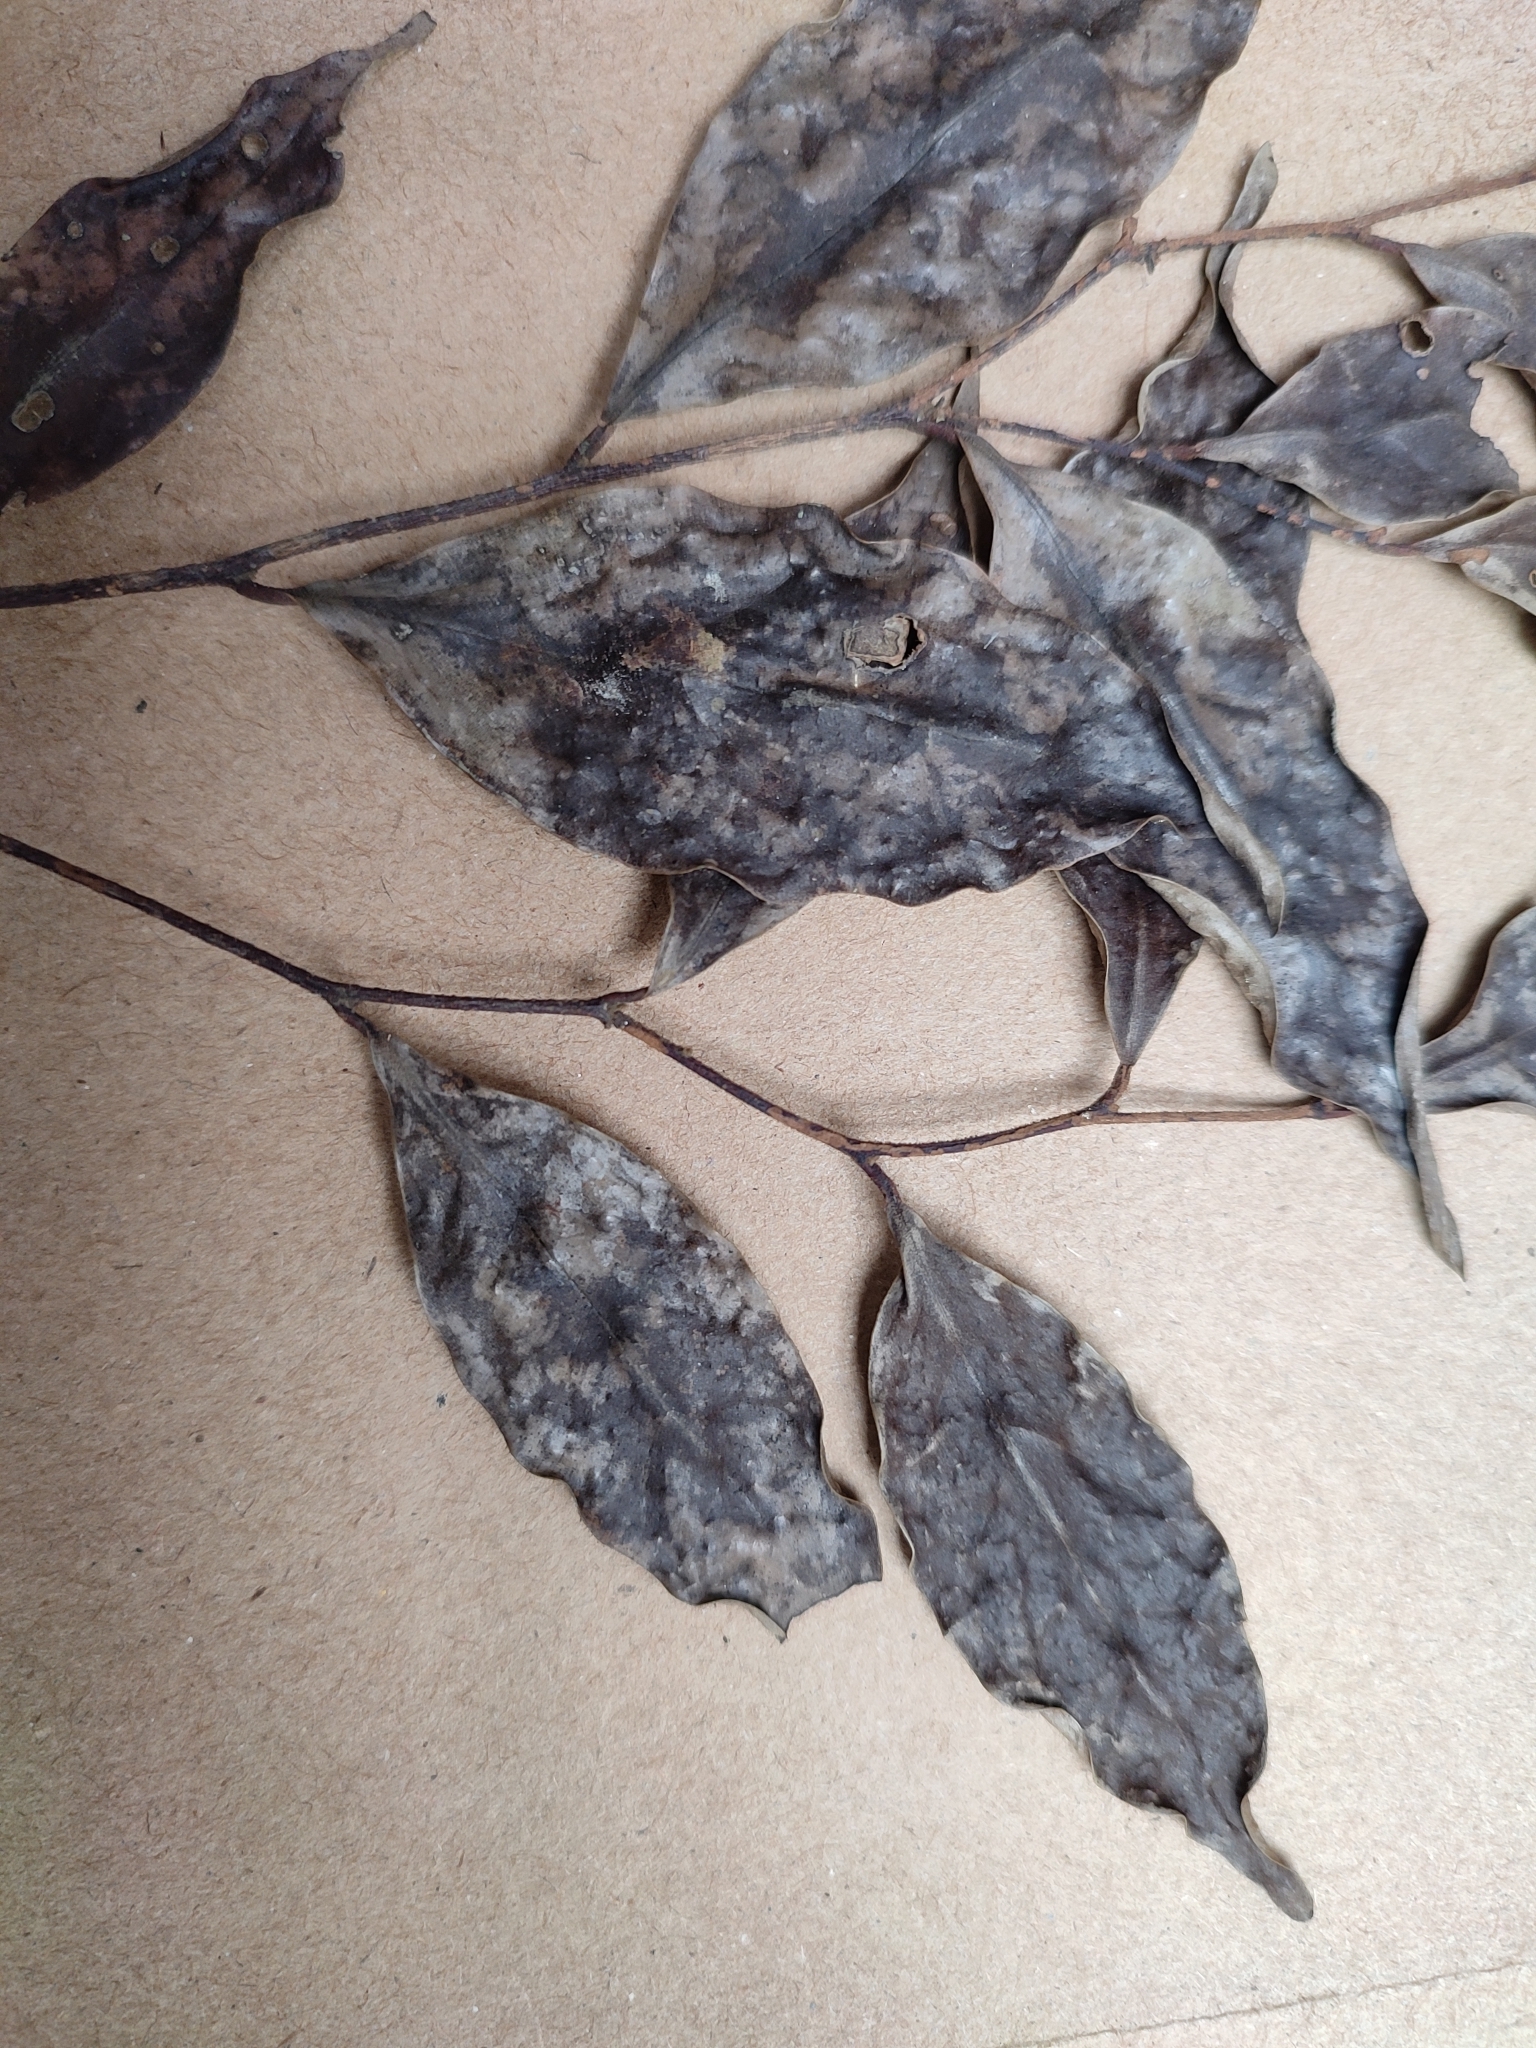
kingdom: Plantae
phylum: Tracheophyta
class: Magnoliopsida
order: Magnoliales
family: Annonaceae
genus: Orophea
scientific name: Orophea thomsonii
